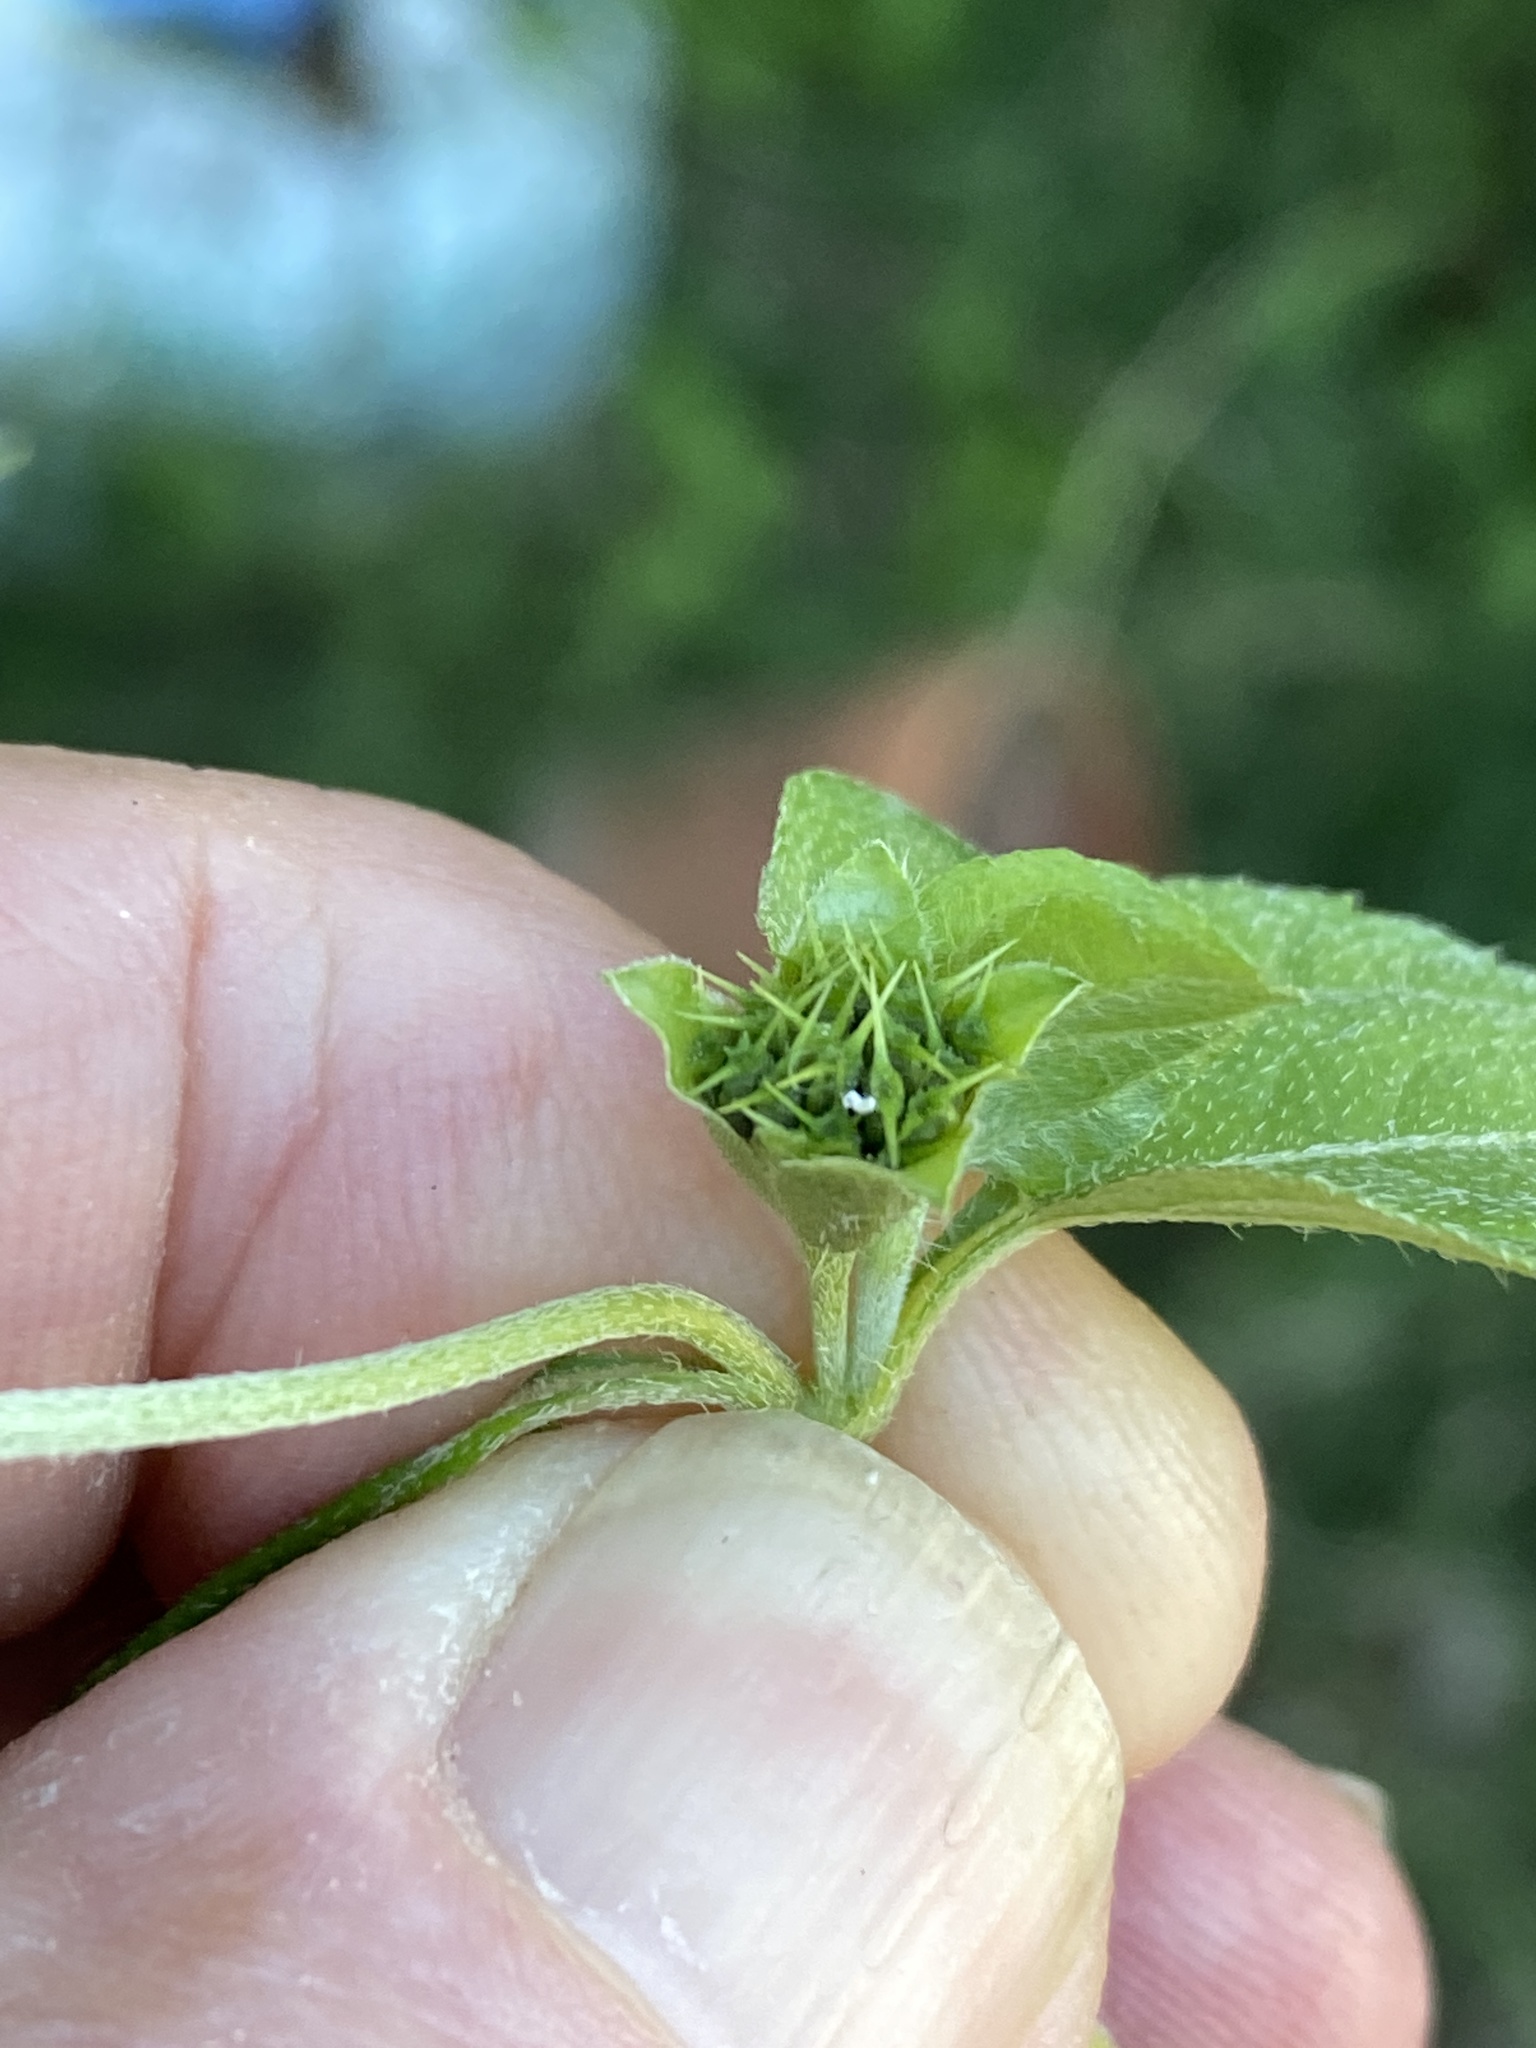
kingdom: Plantae
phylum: Tracheophyta
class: Magnoliopsida
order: Asterales
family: Asteraceae
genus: Calyptocarpus
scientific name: Calyptocarpus vialis
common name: Straggler daisy
